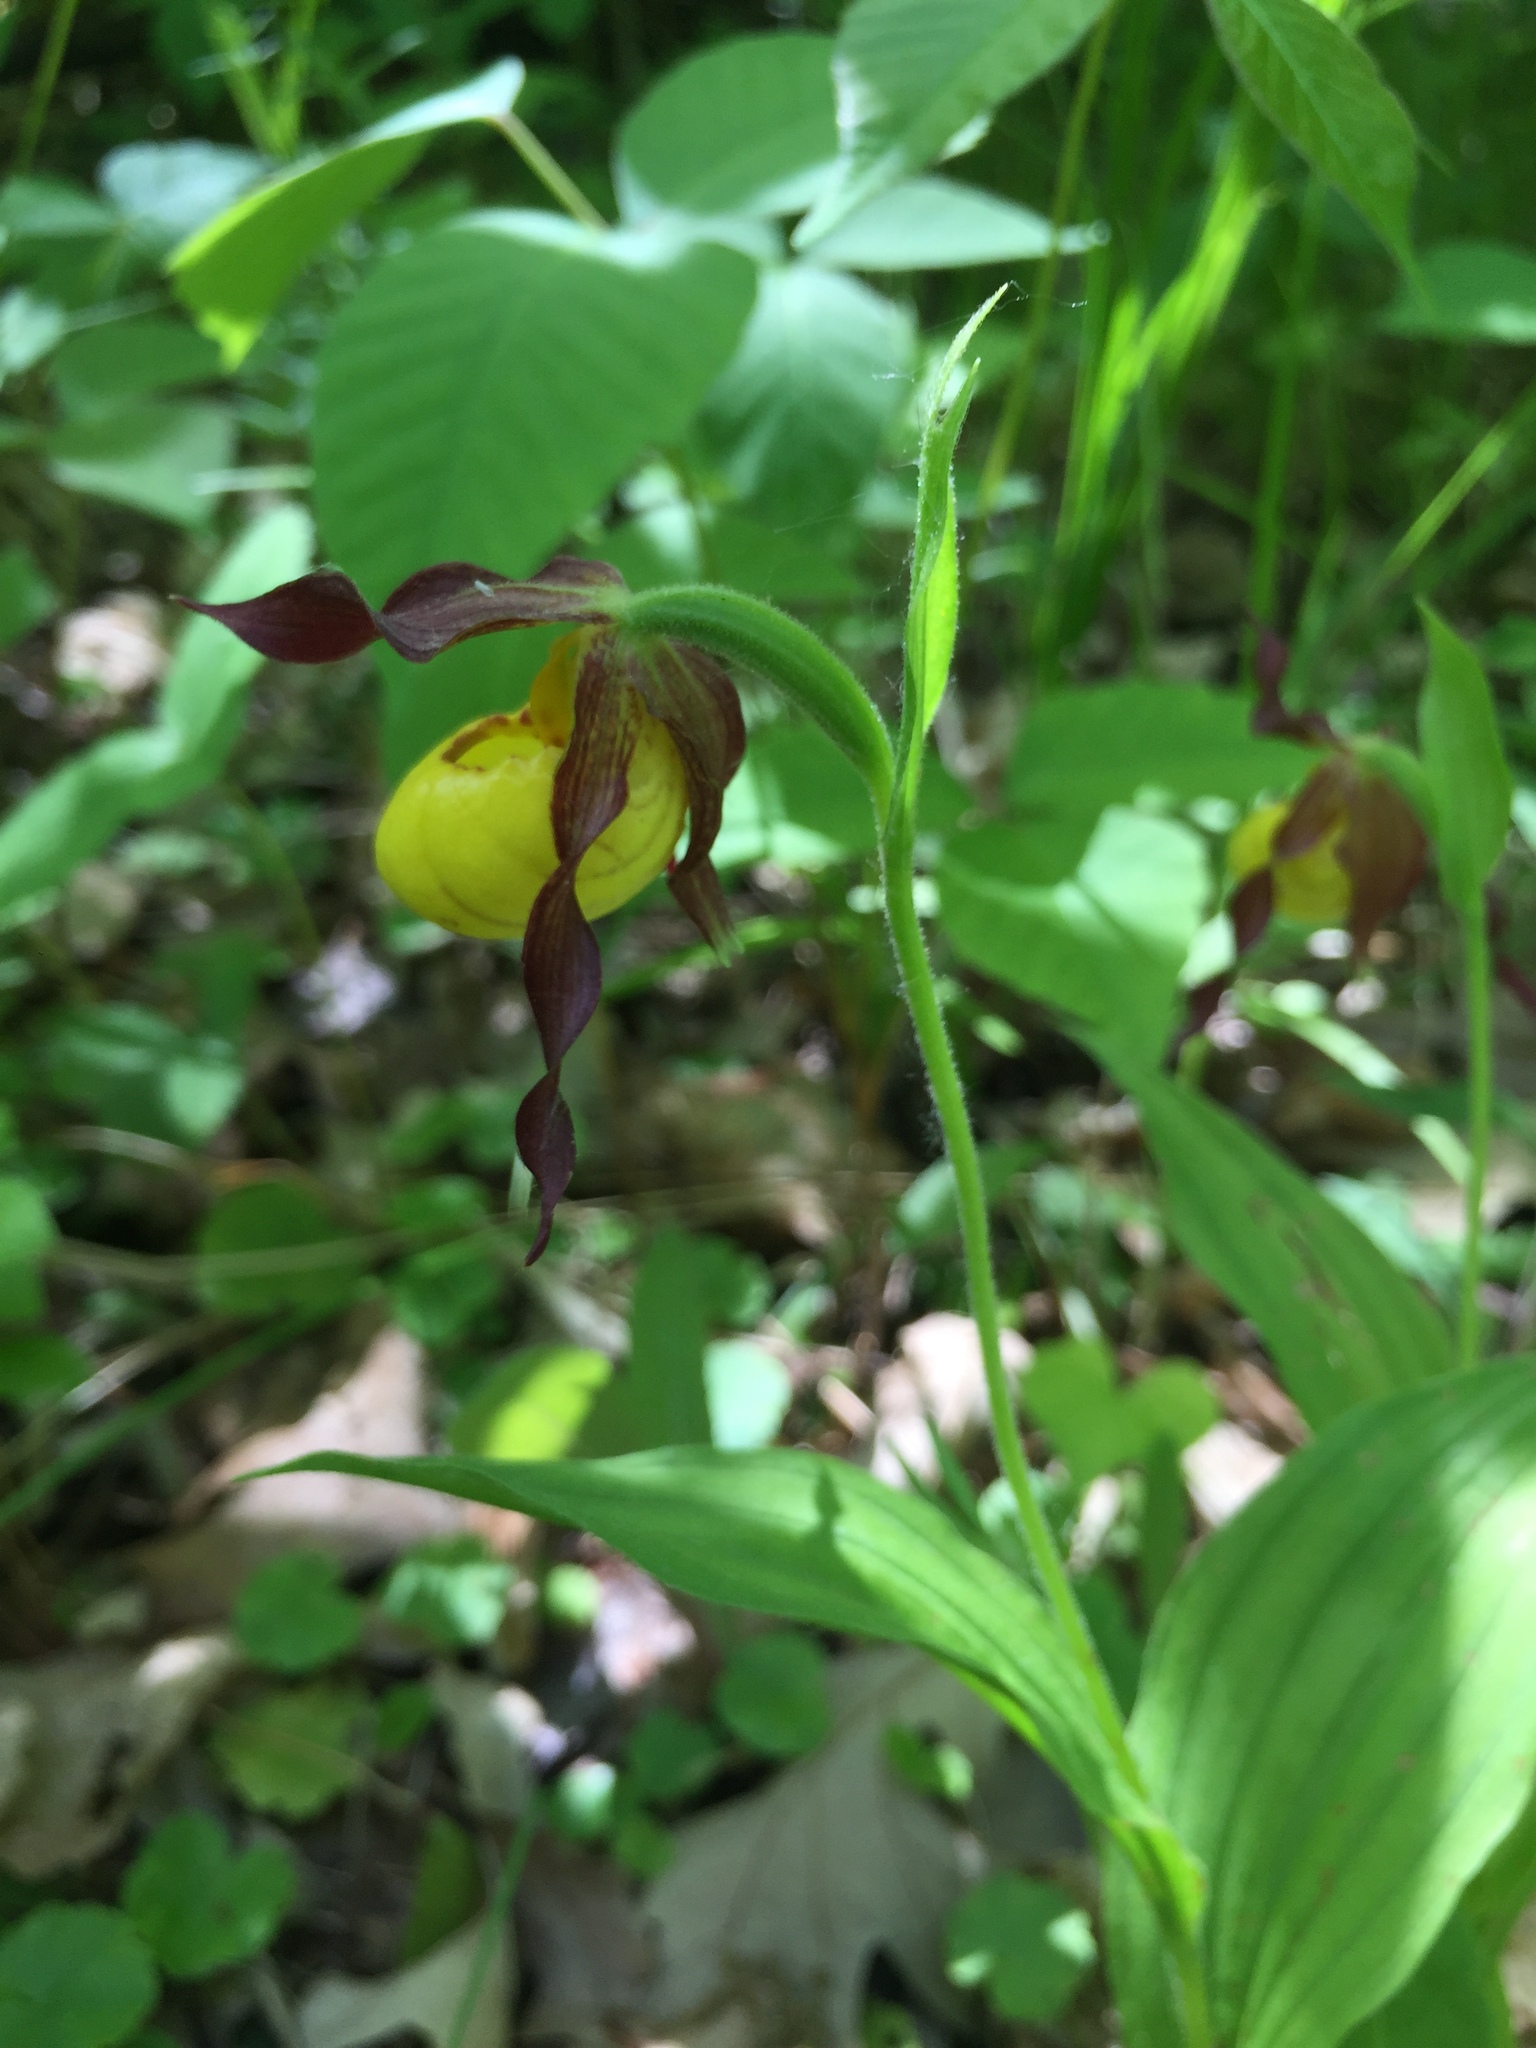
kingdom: Plantae
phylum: Tracheophyta
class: Liliopsida
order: Asparagales
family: Orchidaceae
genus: Cypripedium
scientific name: Cypripedium parviflorum
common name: American yellow lady's-slipper
